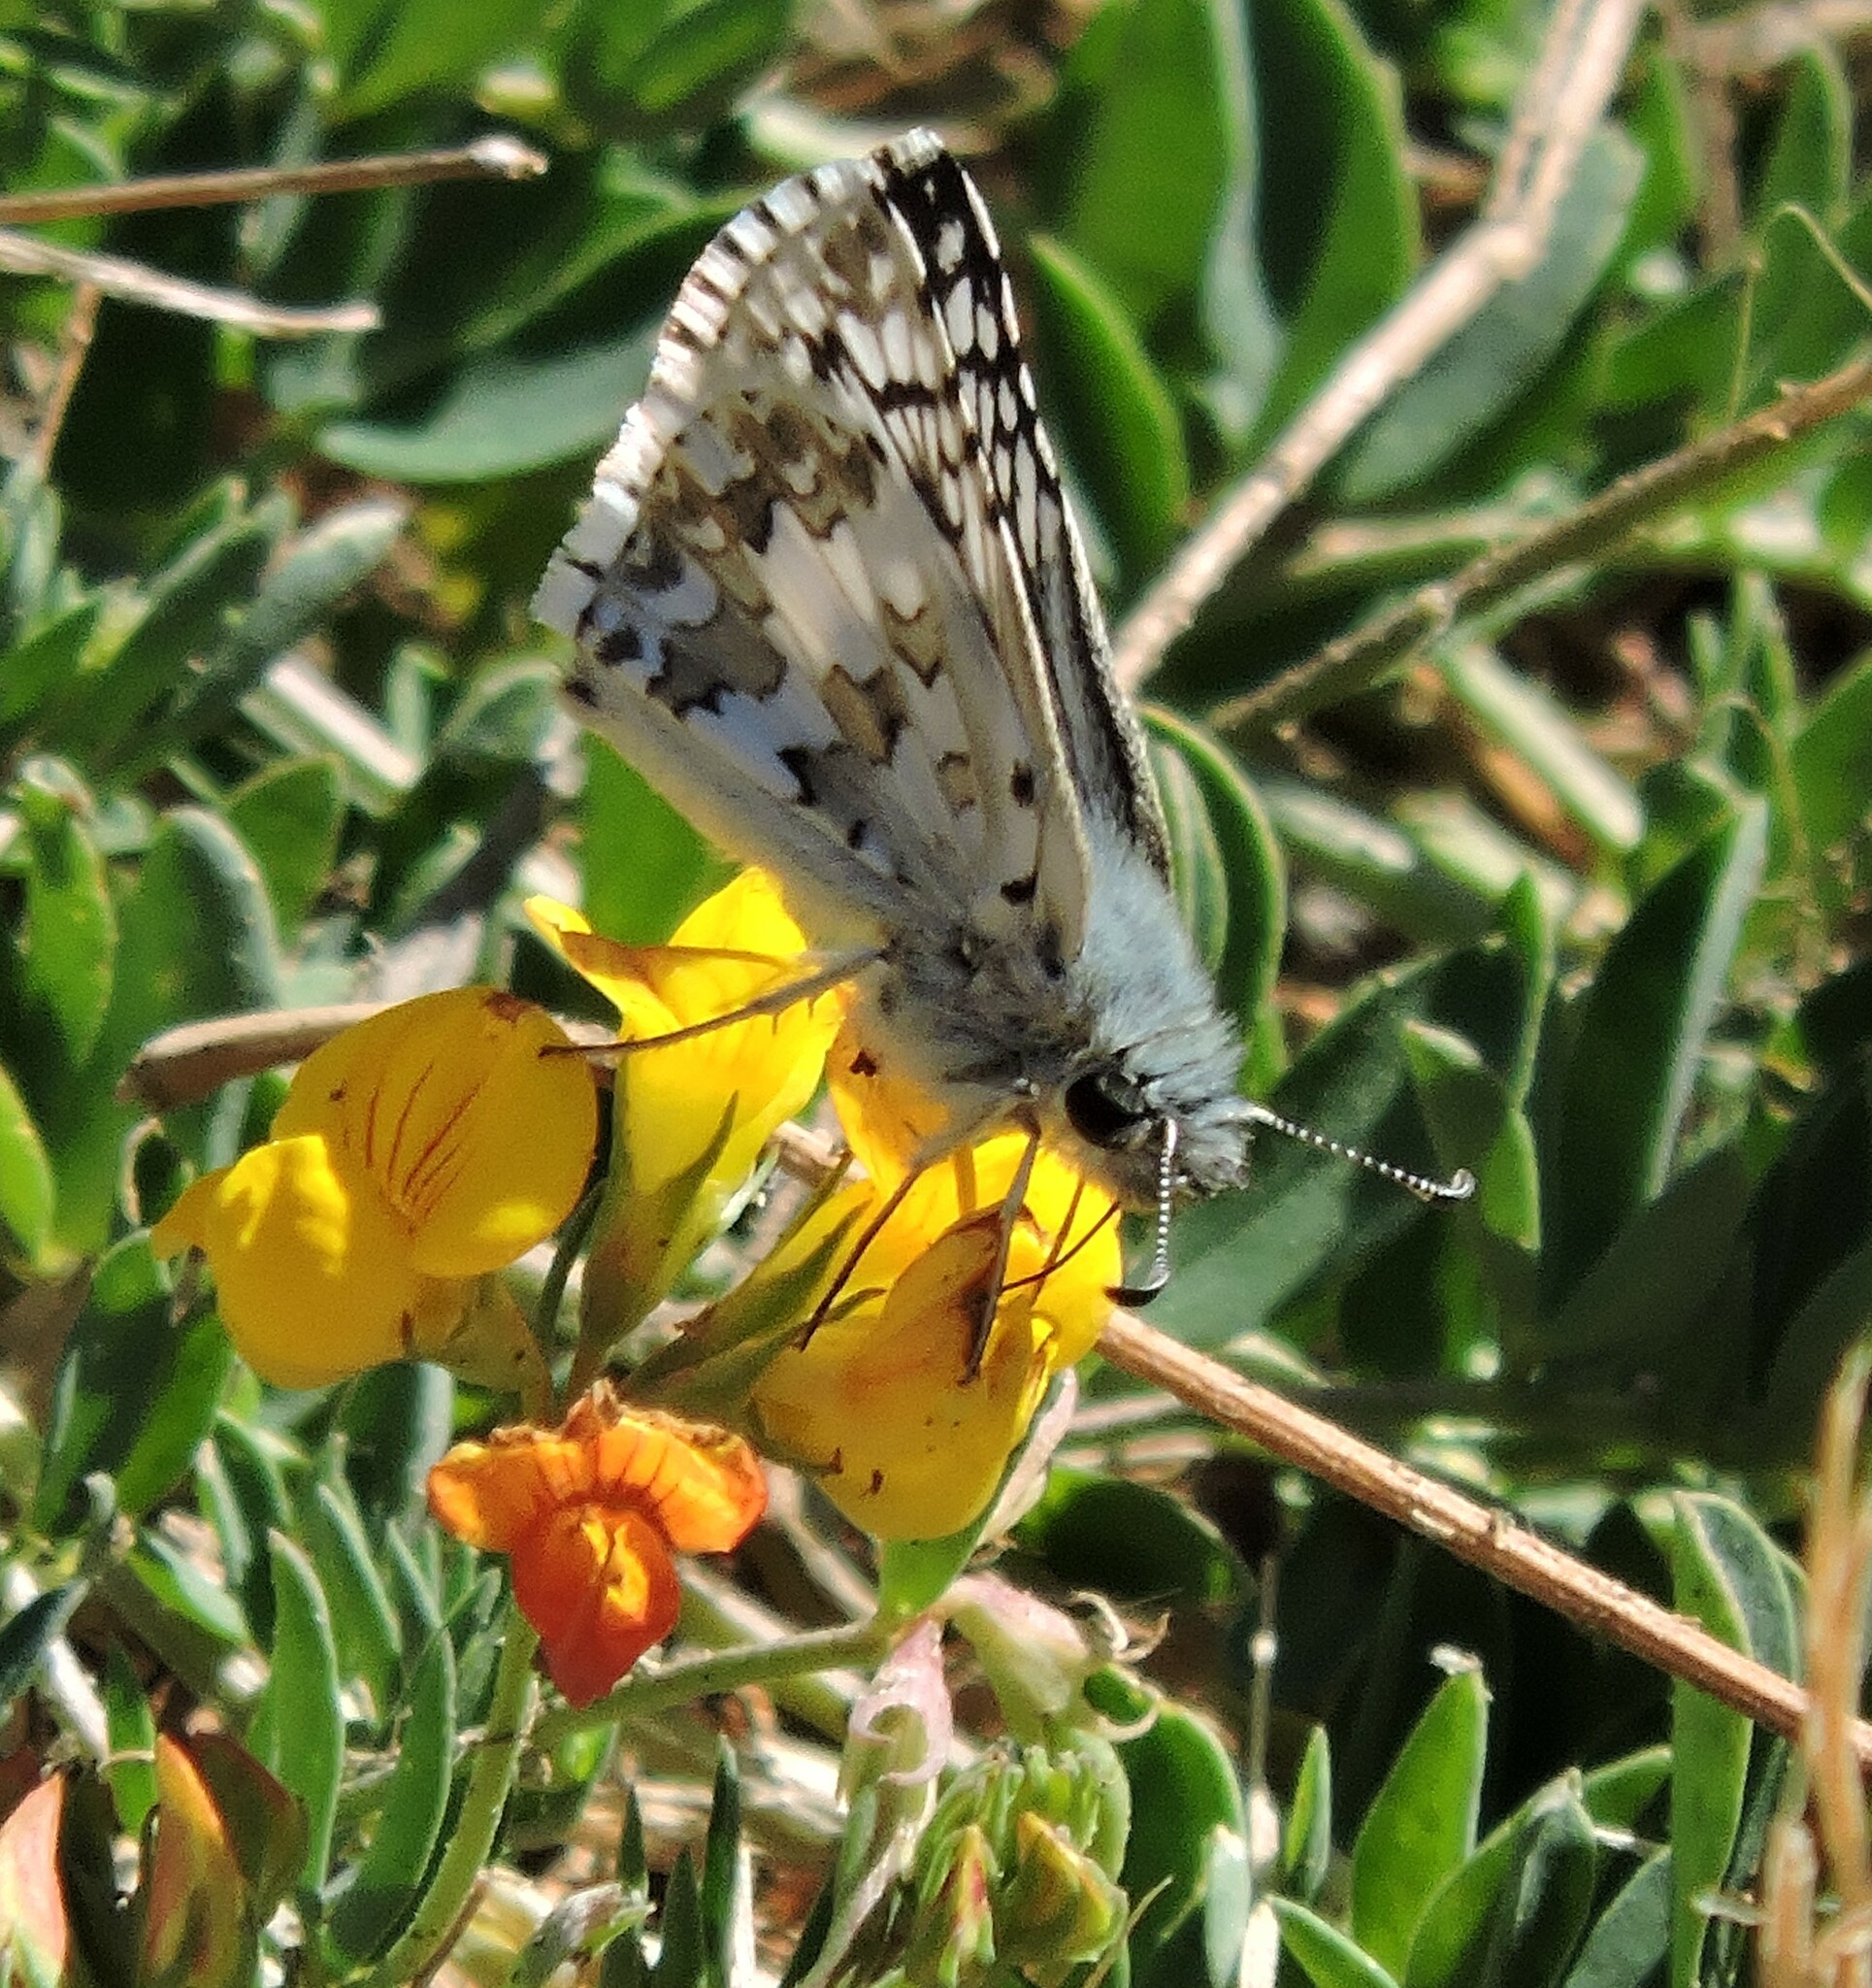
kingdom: Animalia
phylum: Arthropoda
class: Insecta
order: Lepidoptera
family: Hesperiidae
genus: Burnsius
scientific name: Burnsius communis
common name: Common checkered-skipper
